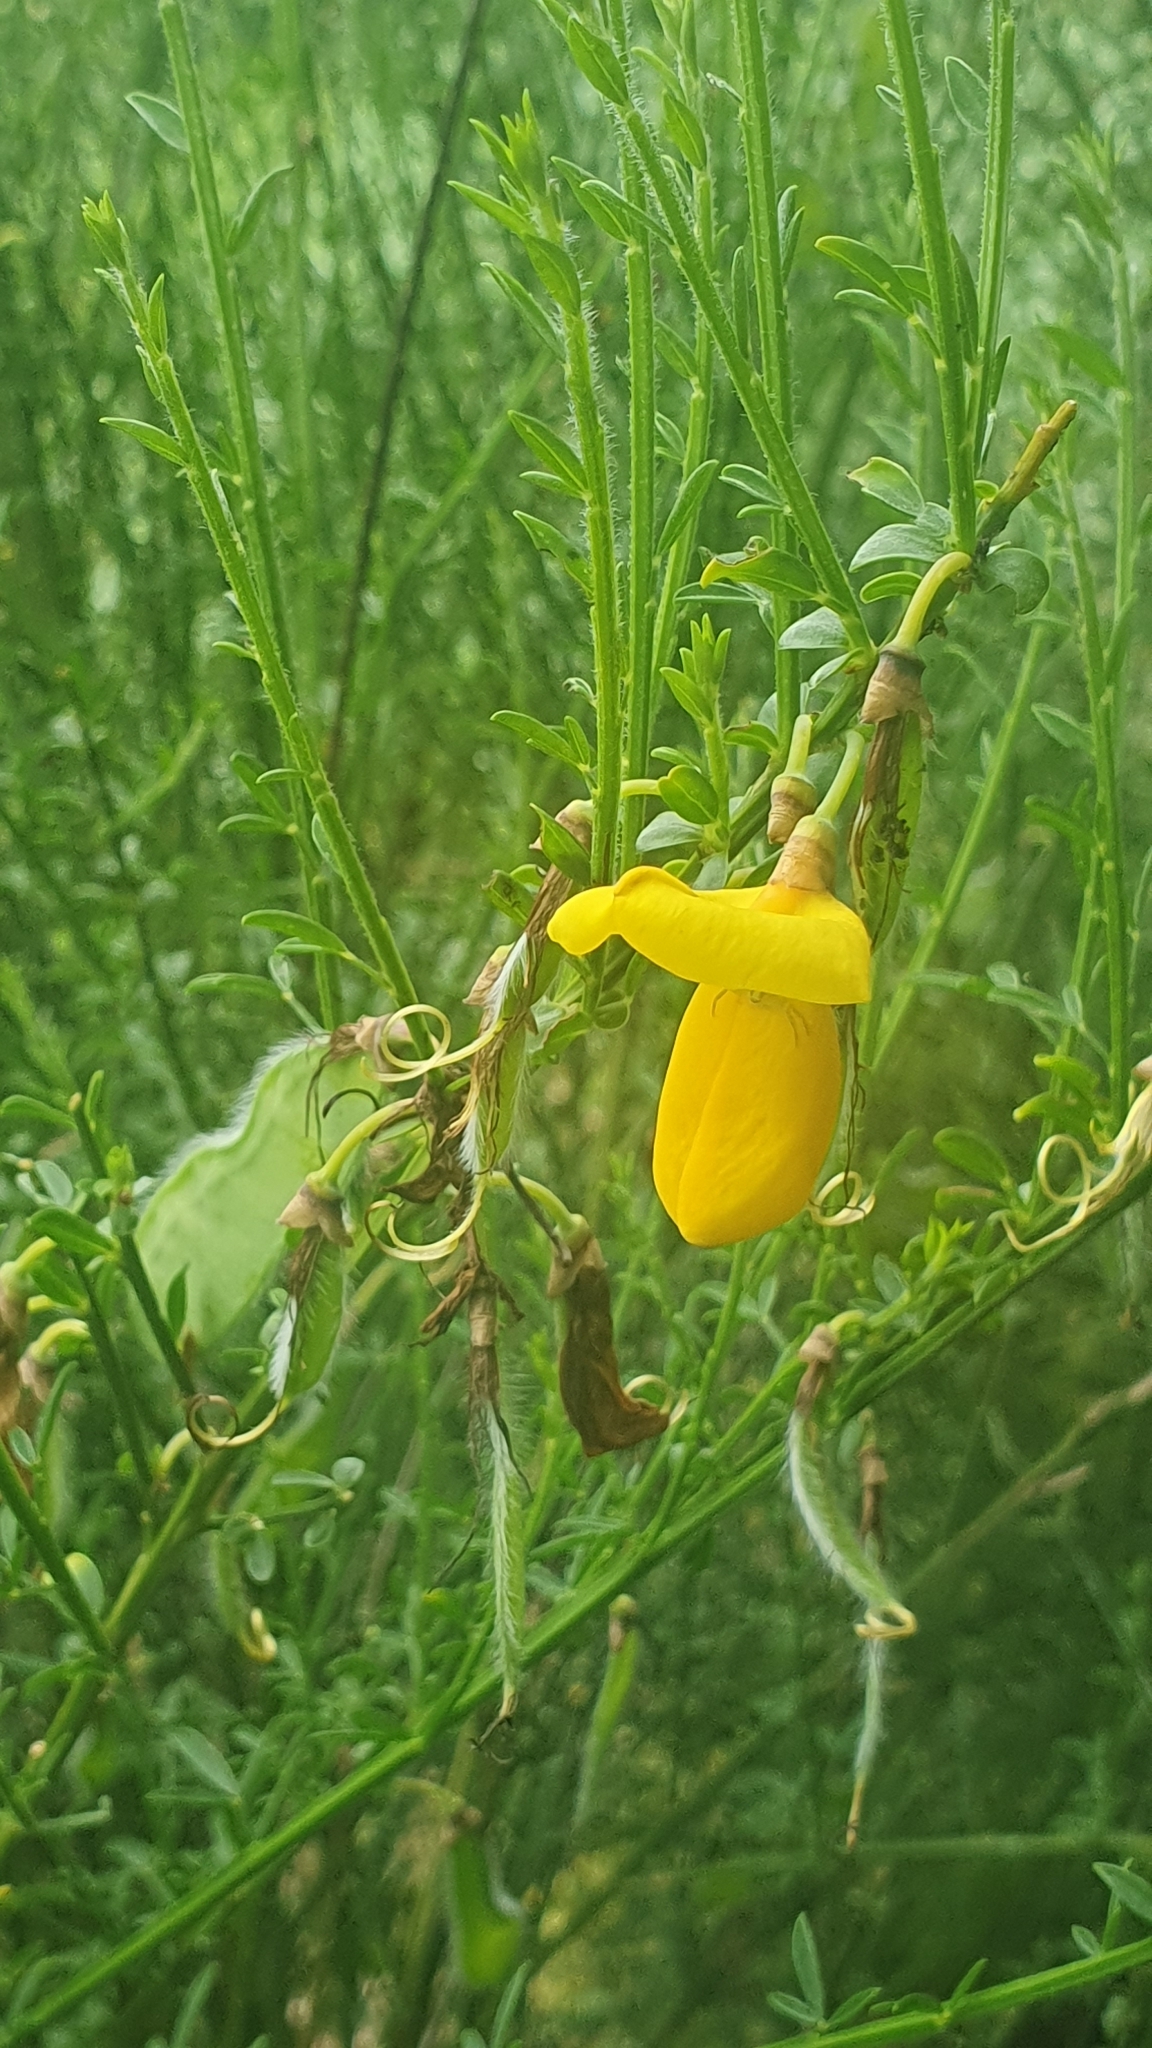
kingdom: Plantae
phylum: Tracheophyta
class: Magnoliopsida
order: Fabales
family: Fabaceae
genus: Cytisus
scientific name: Cytisus scoparius
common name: Scotch broom
